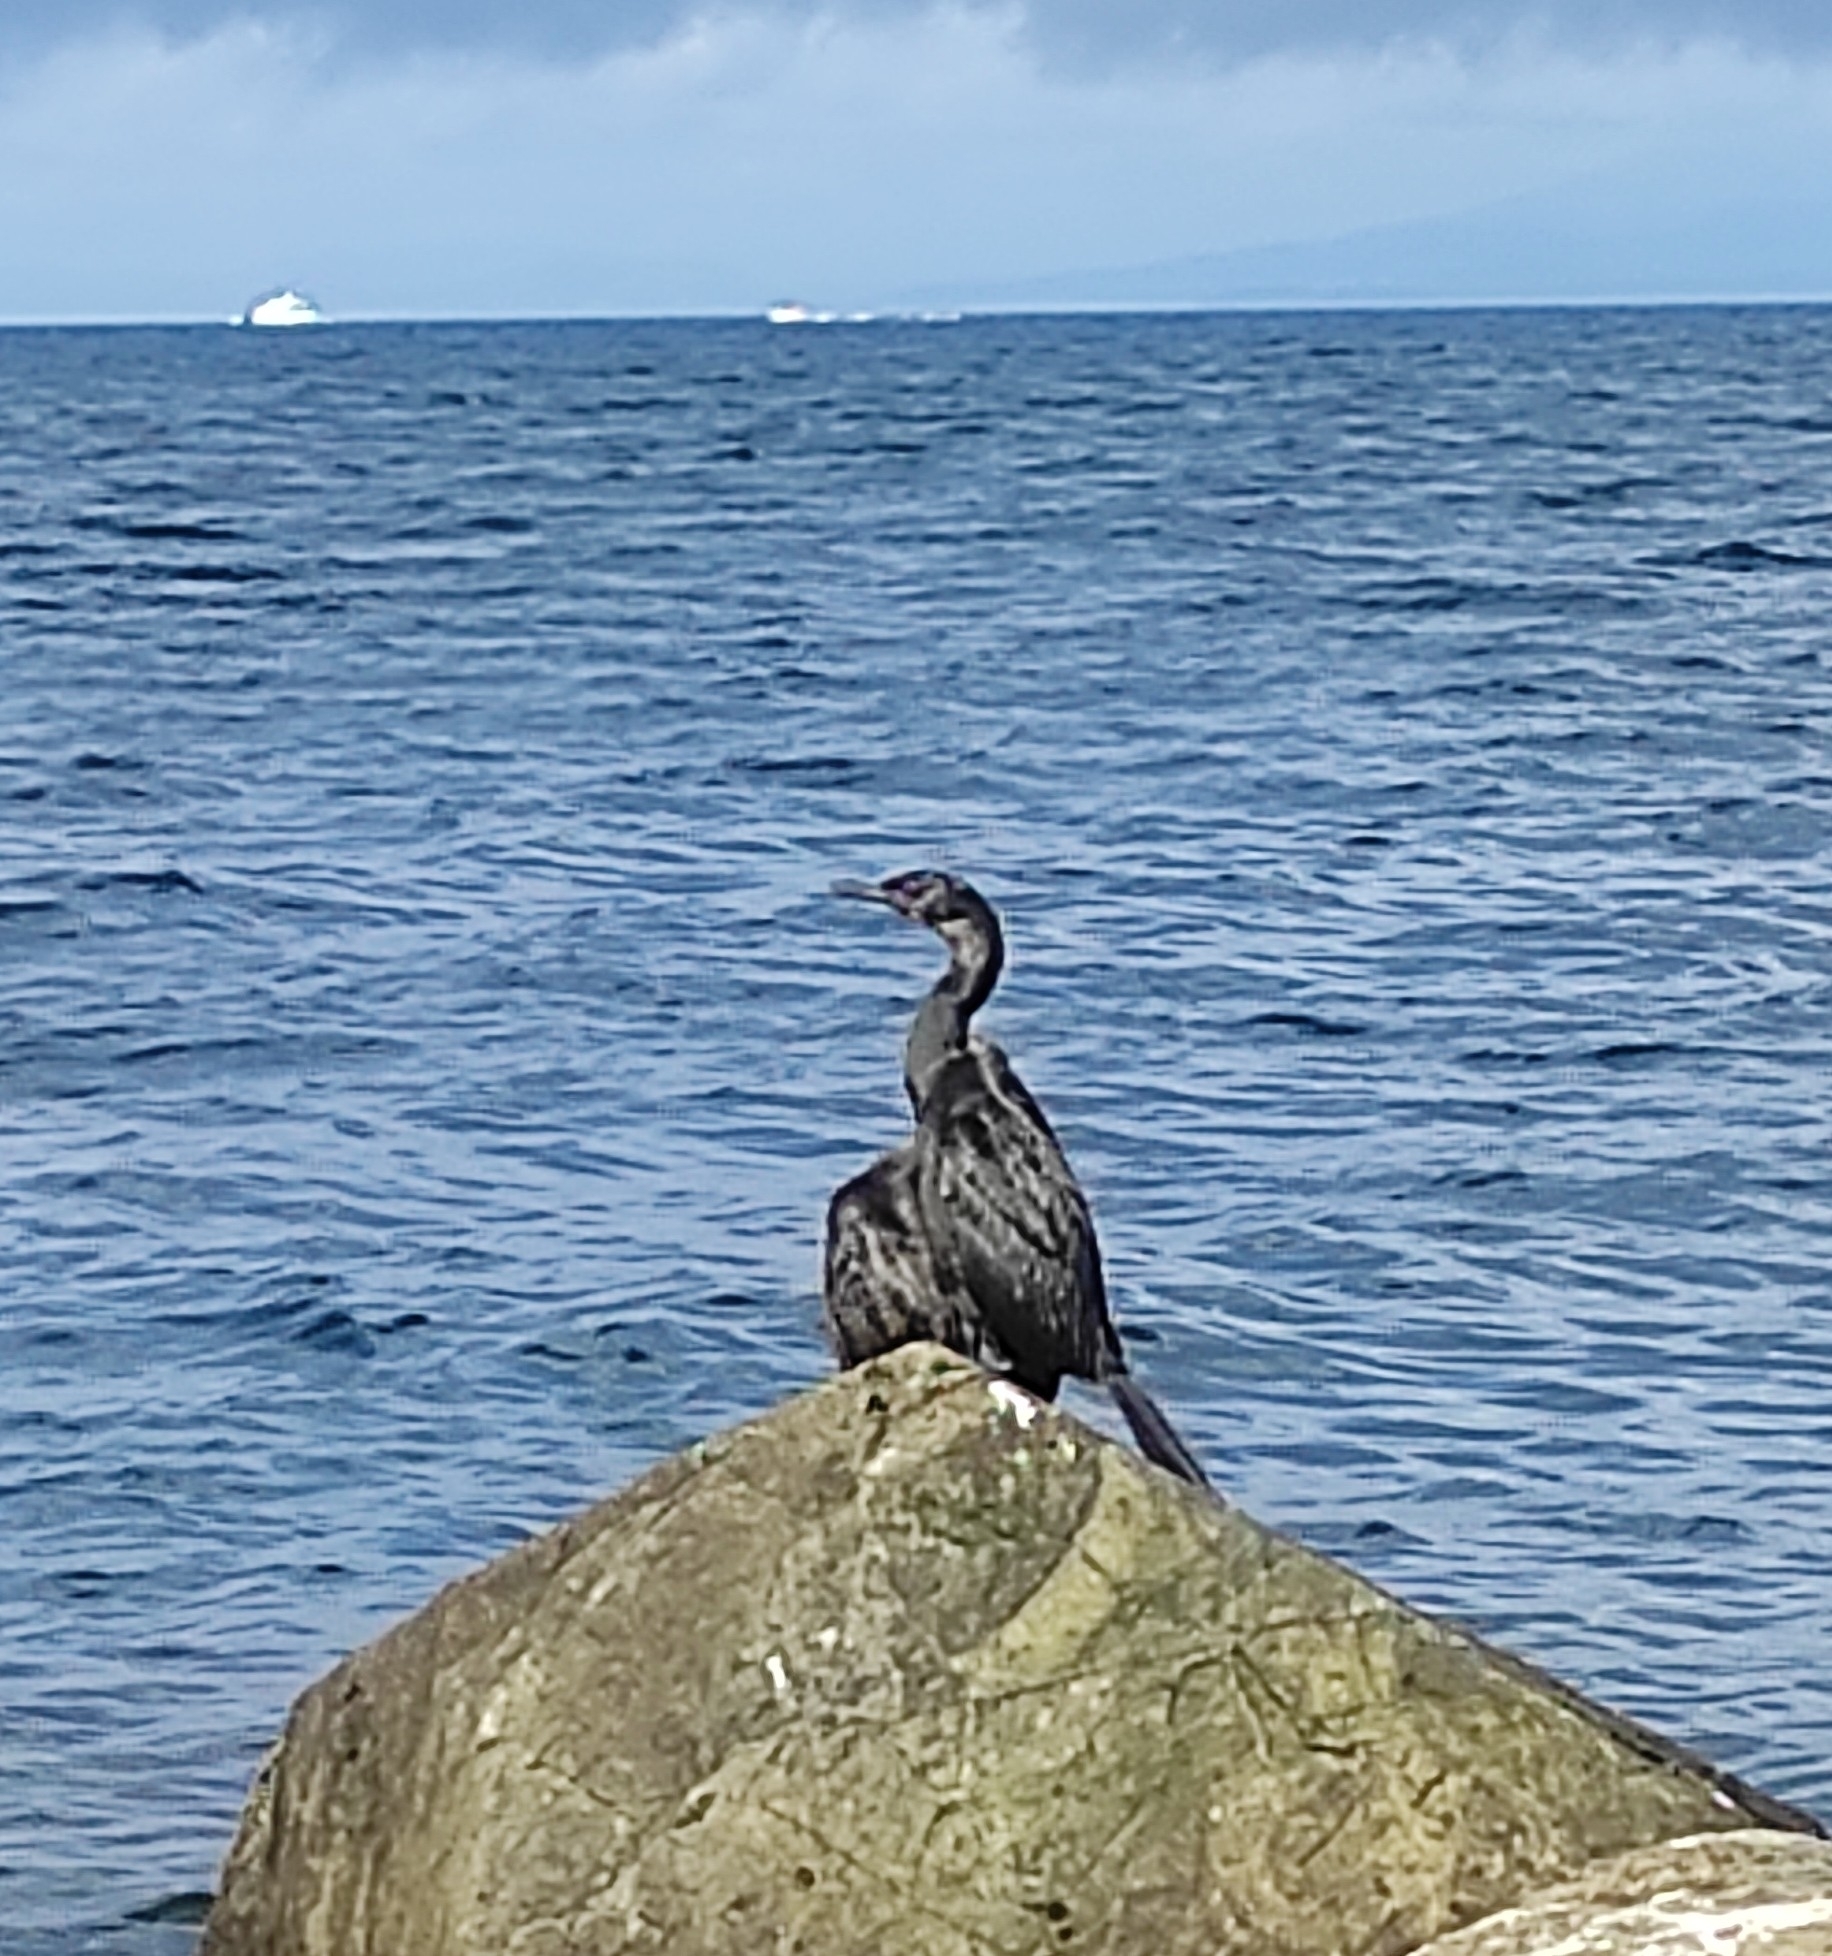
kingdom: Animalia
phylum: Chordata
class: Aves
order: Suliformes
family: Phalacrocoracidae
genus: Phalacrocorax
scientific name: Phalacrocorax pelagicus
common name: Pelagic cormorant
